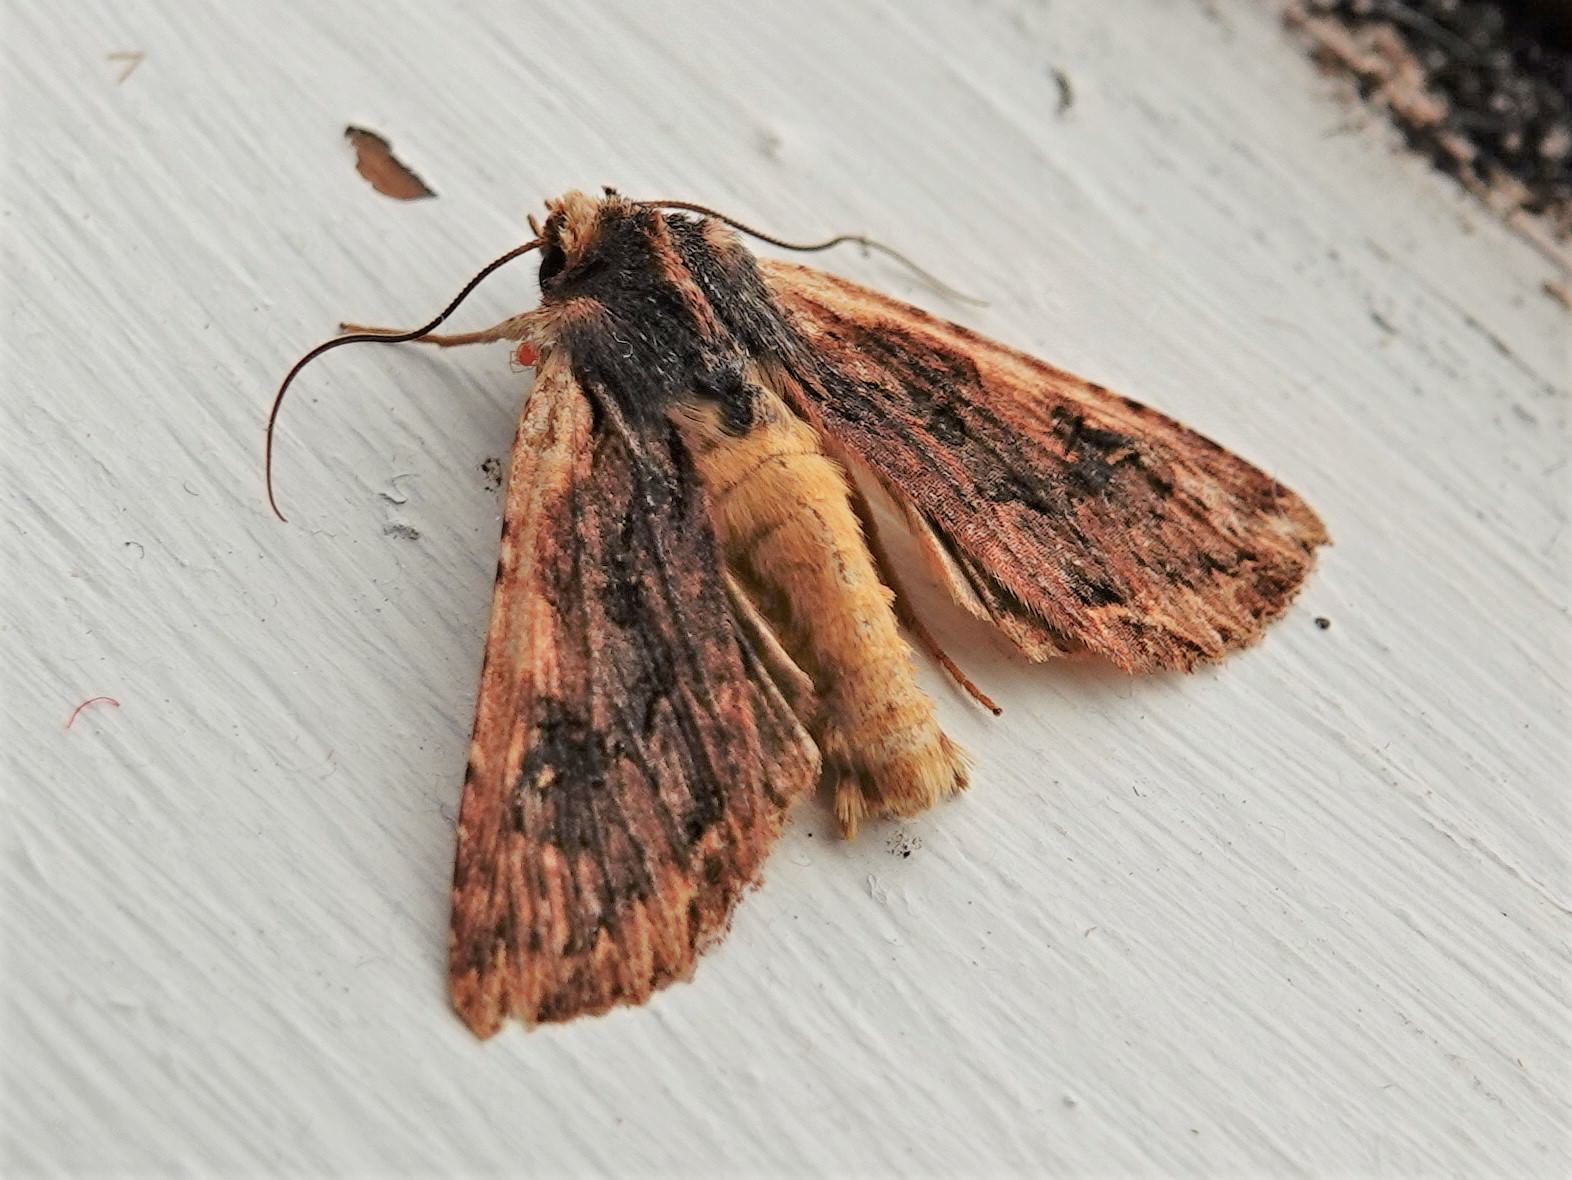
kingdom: Animalia
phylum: Arthropoda
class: Insecta
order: Lepidoptera
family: Noctuidae
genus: Meterana
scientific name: Meterana alcyone
